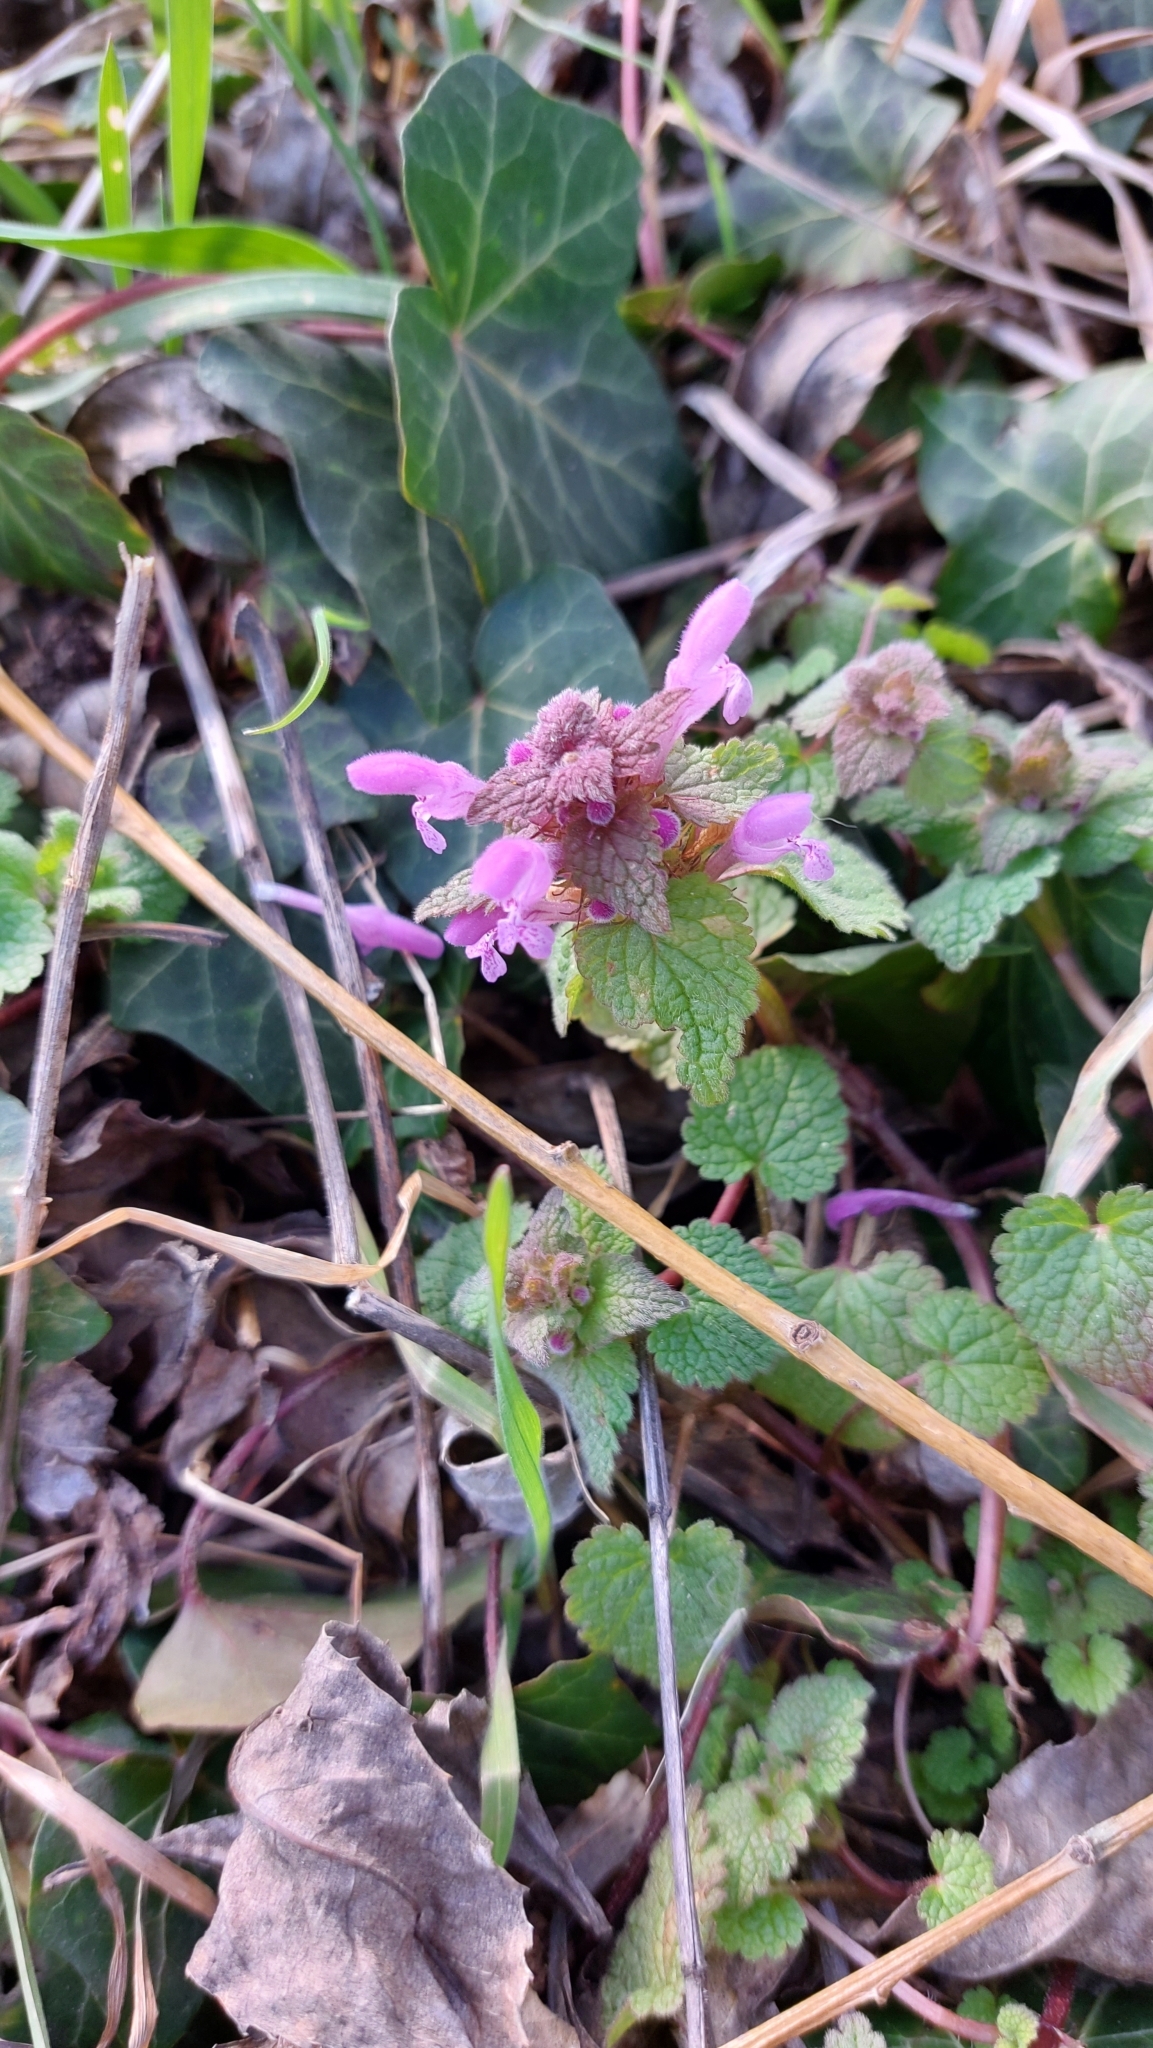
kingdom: Plantae
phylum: Tracheophyta
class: Magnoliopsida
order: Lamiales
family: Lamiaceae
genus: Lamium
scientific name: Lamium purpureum
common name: Red dead-nettle
